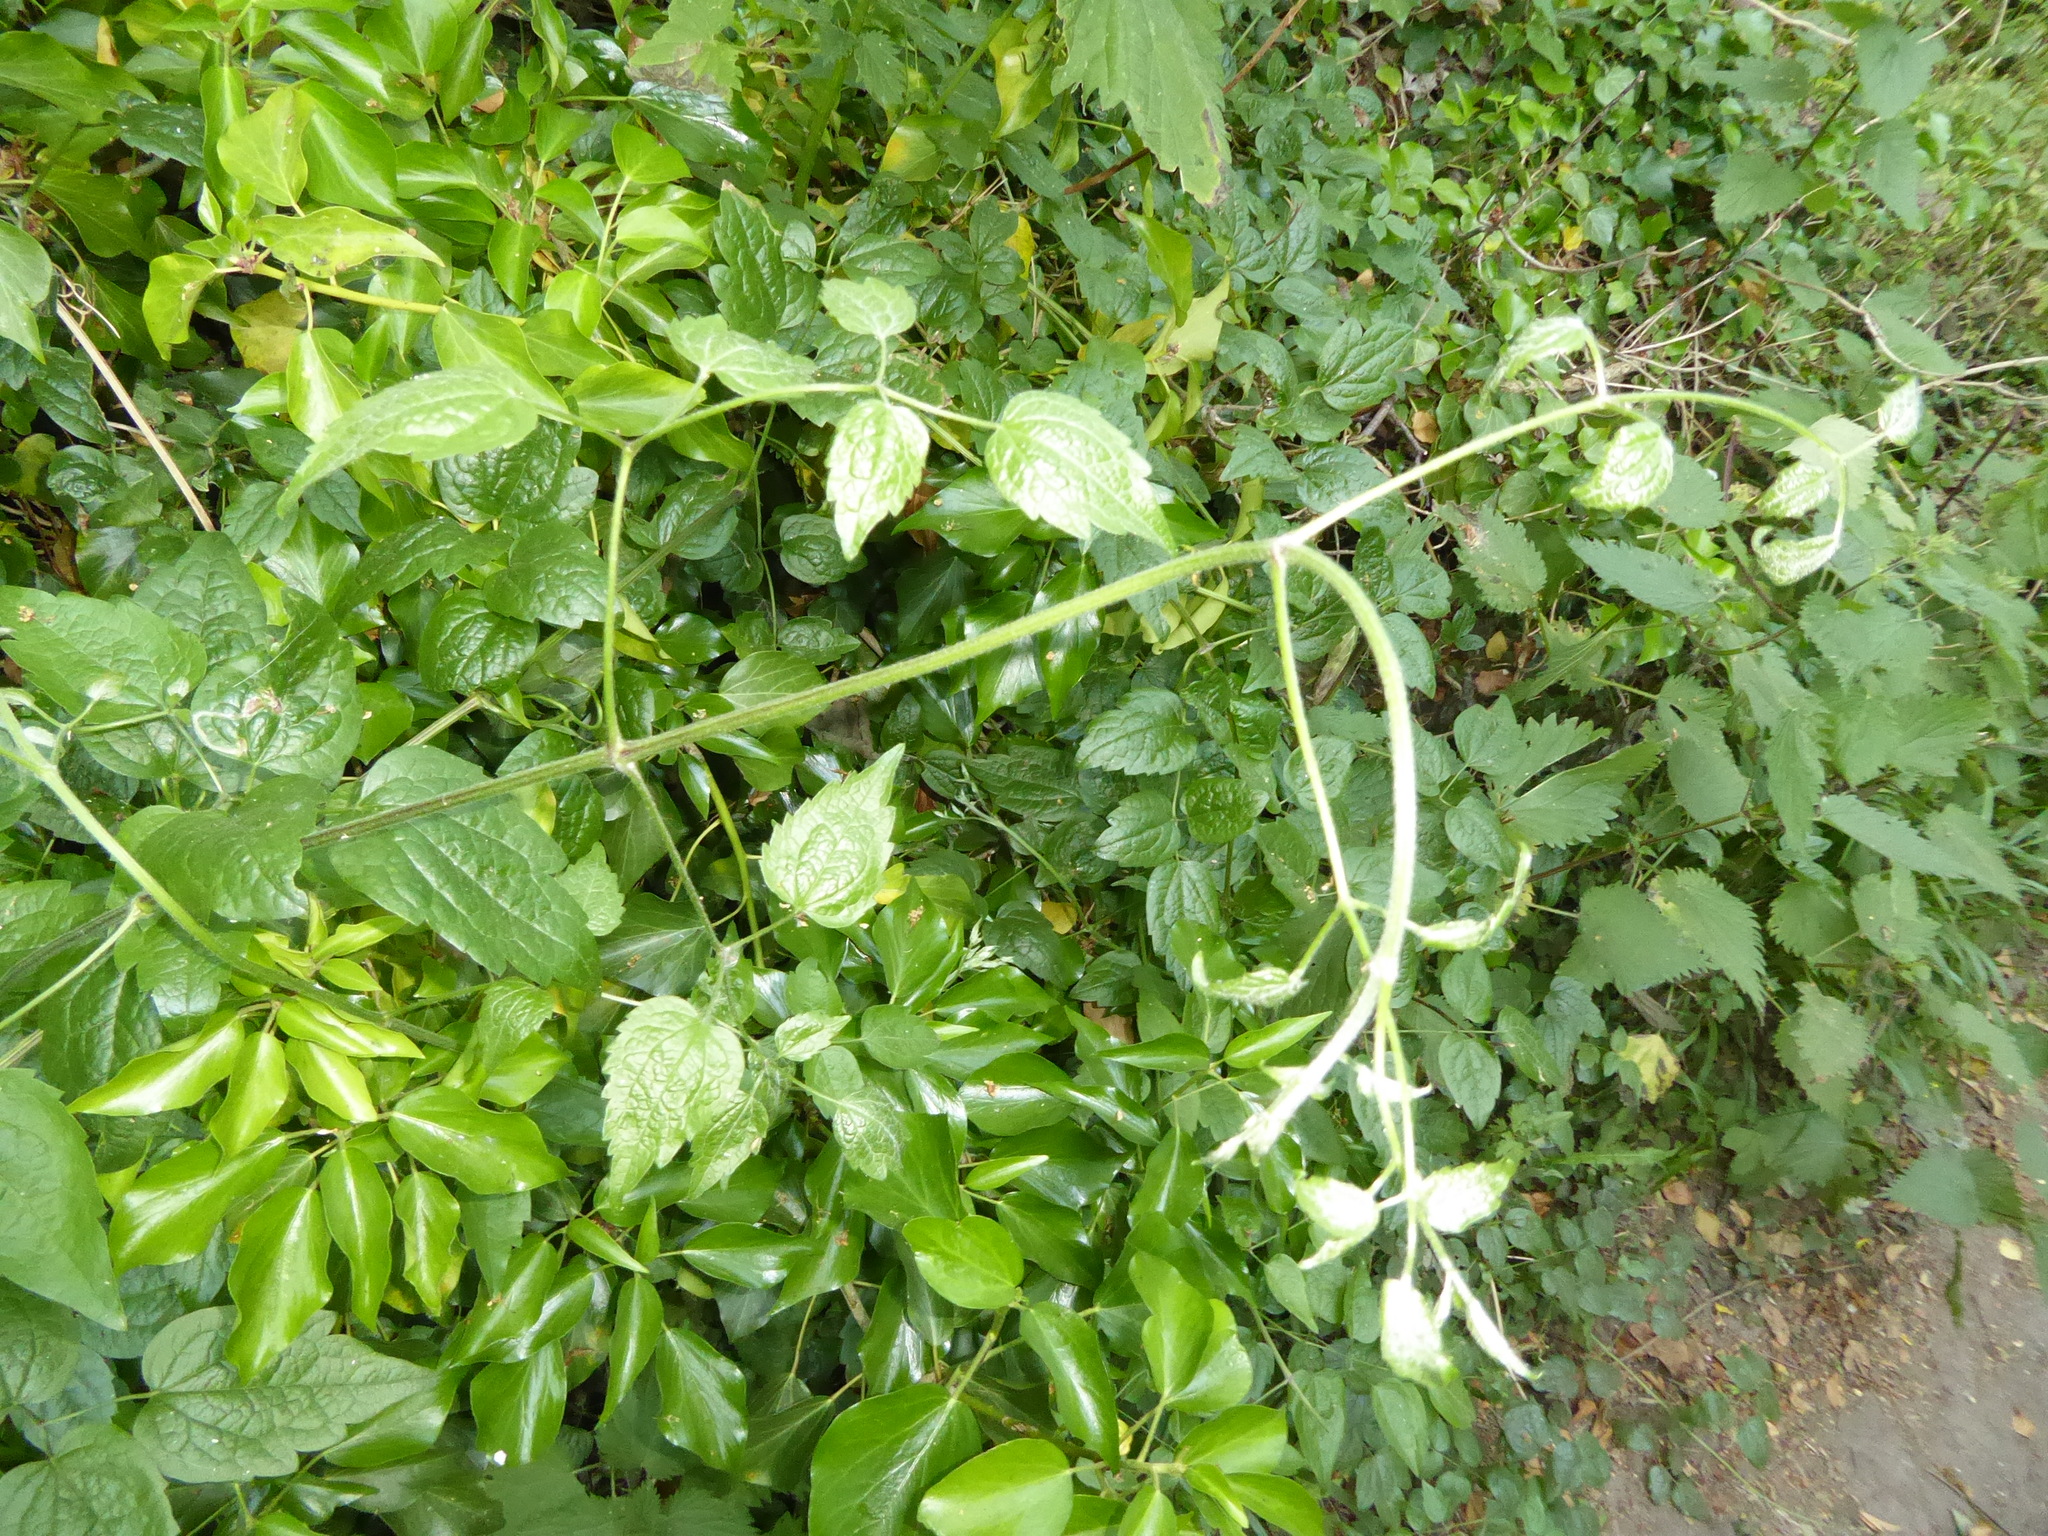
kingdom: Plantae
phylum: Tracheophyta
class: Magnoliopsida
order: Ranunculales
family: Ranunculaceae
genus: Clematis
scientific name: Clematis vitalba
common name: Evergreen clematis
